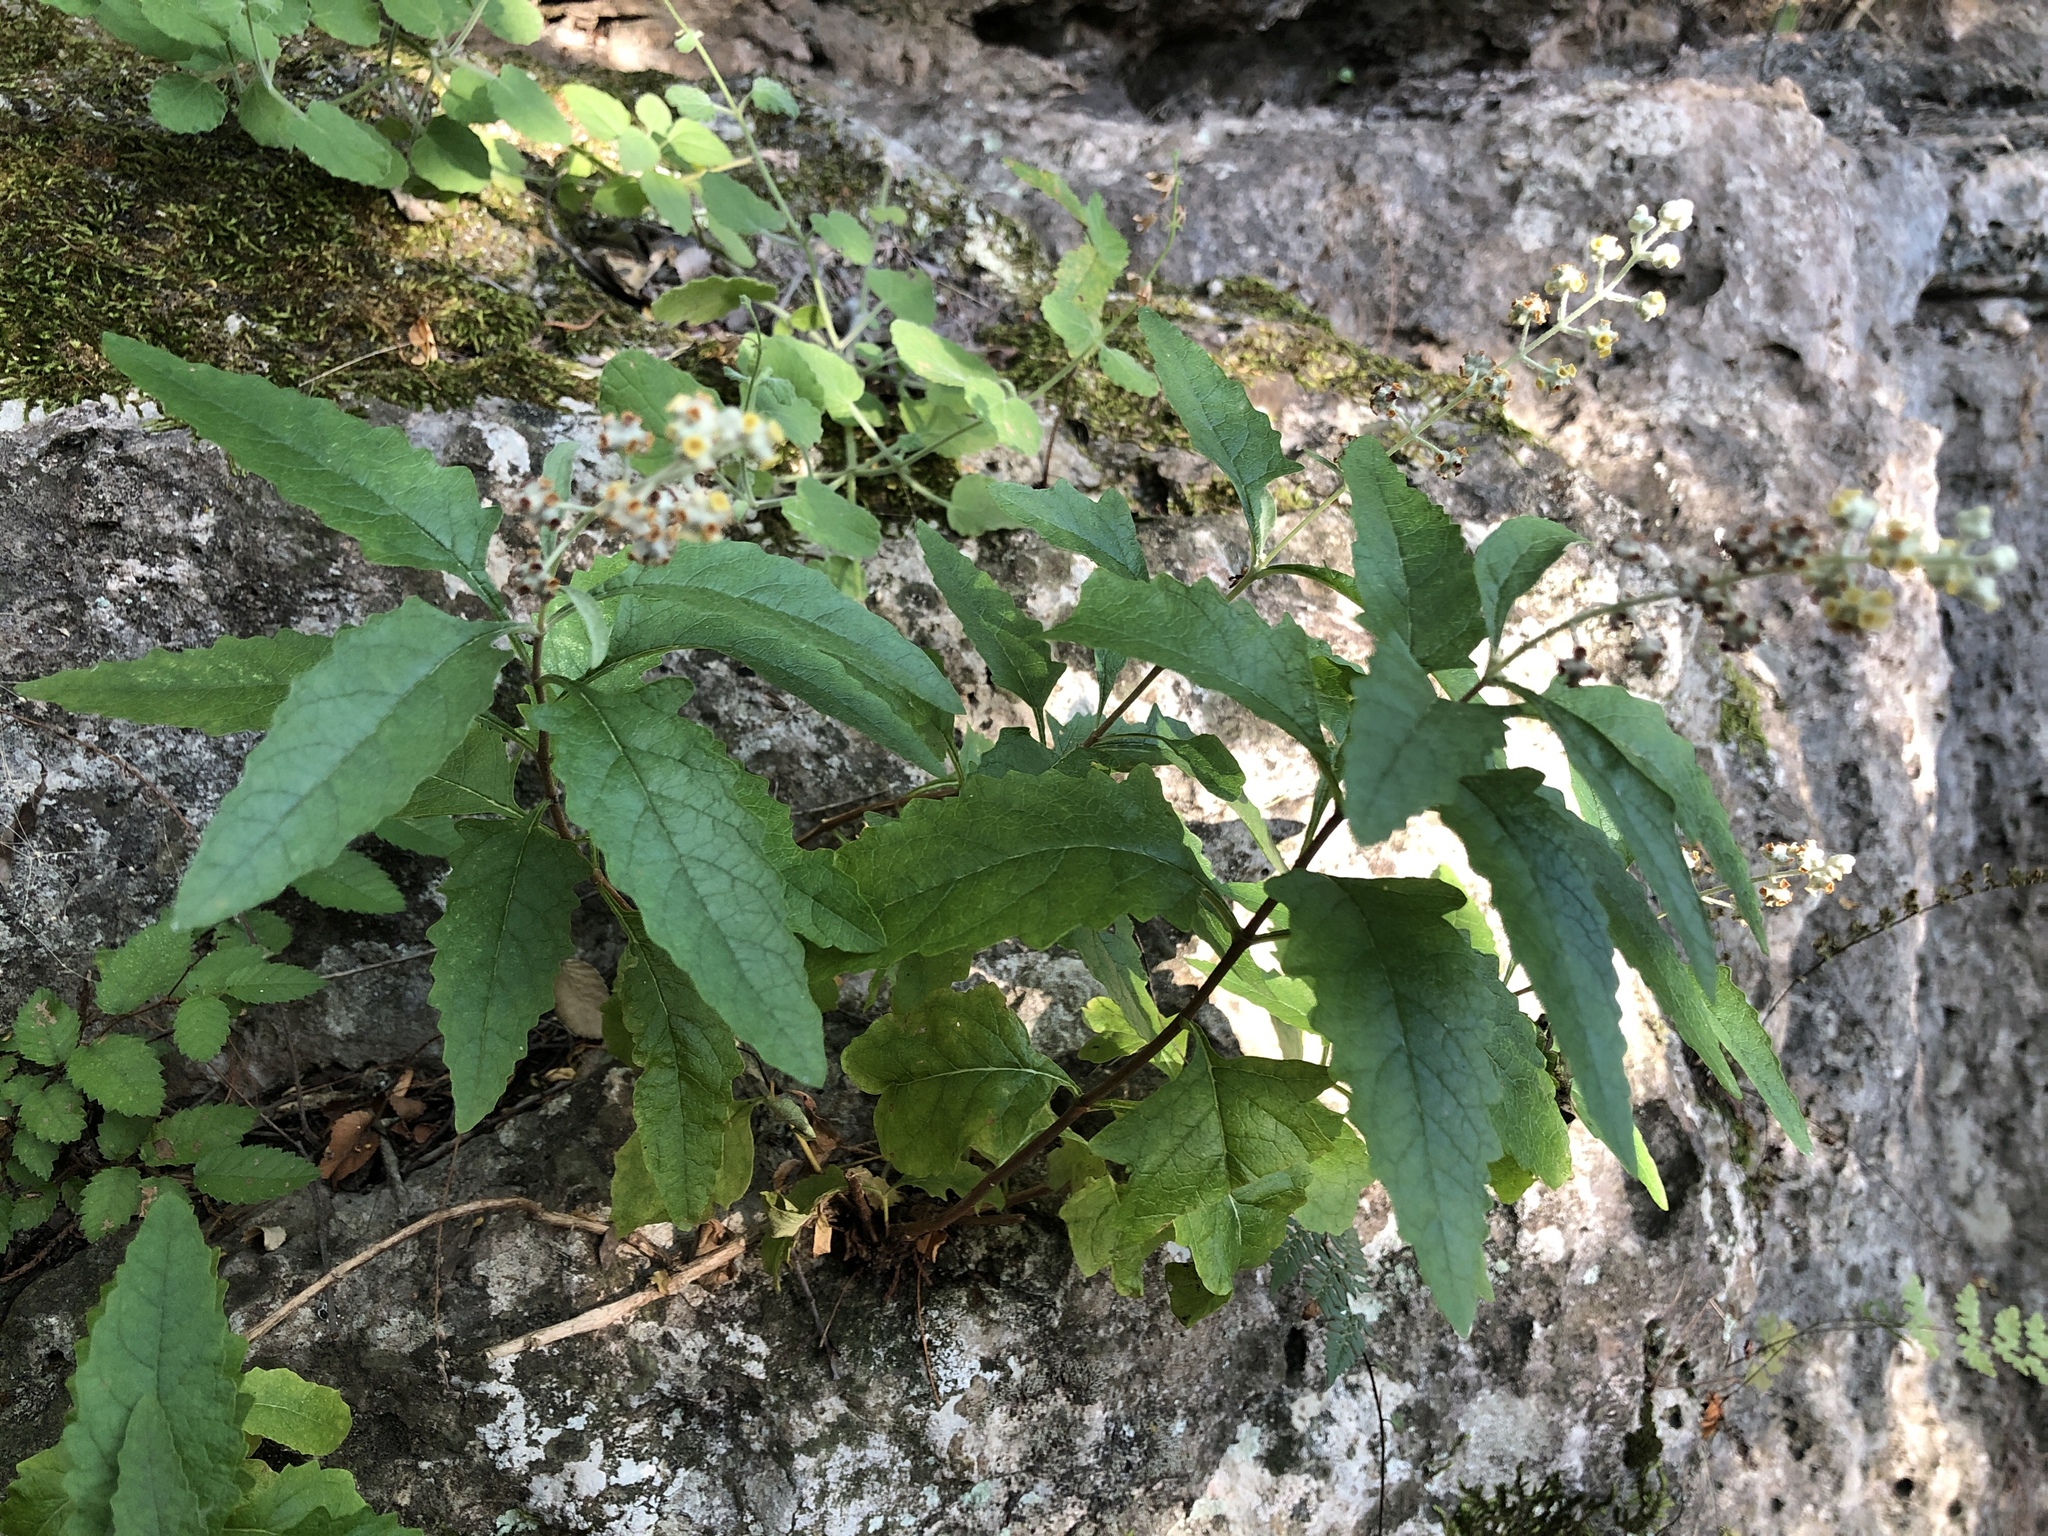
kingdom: Plantae
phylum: Tracheophyta
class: Magnoliopsida
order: Lamiales
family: Scrophulariaceae
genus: Buddleja
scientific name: Buddleja racemosa
